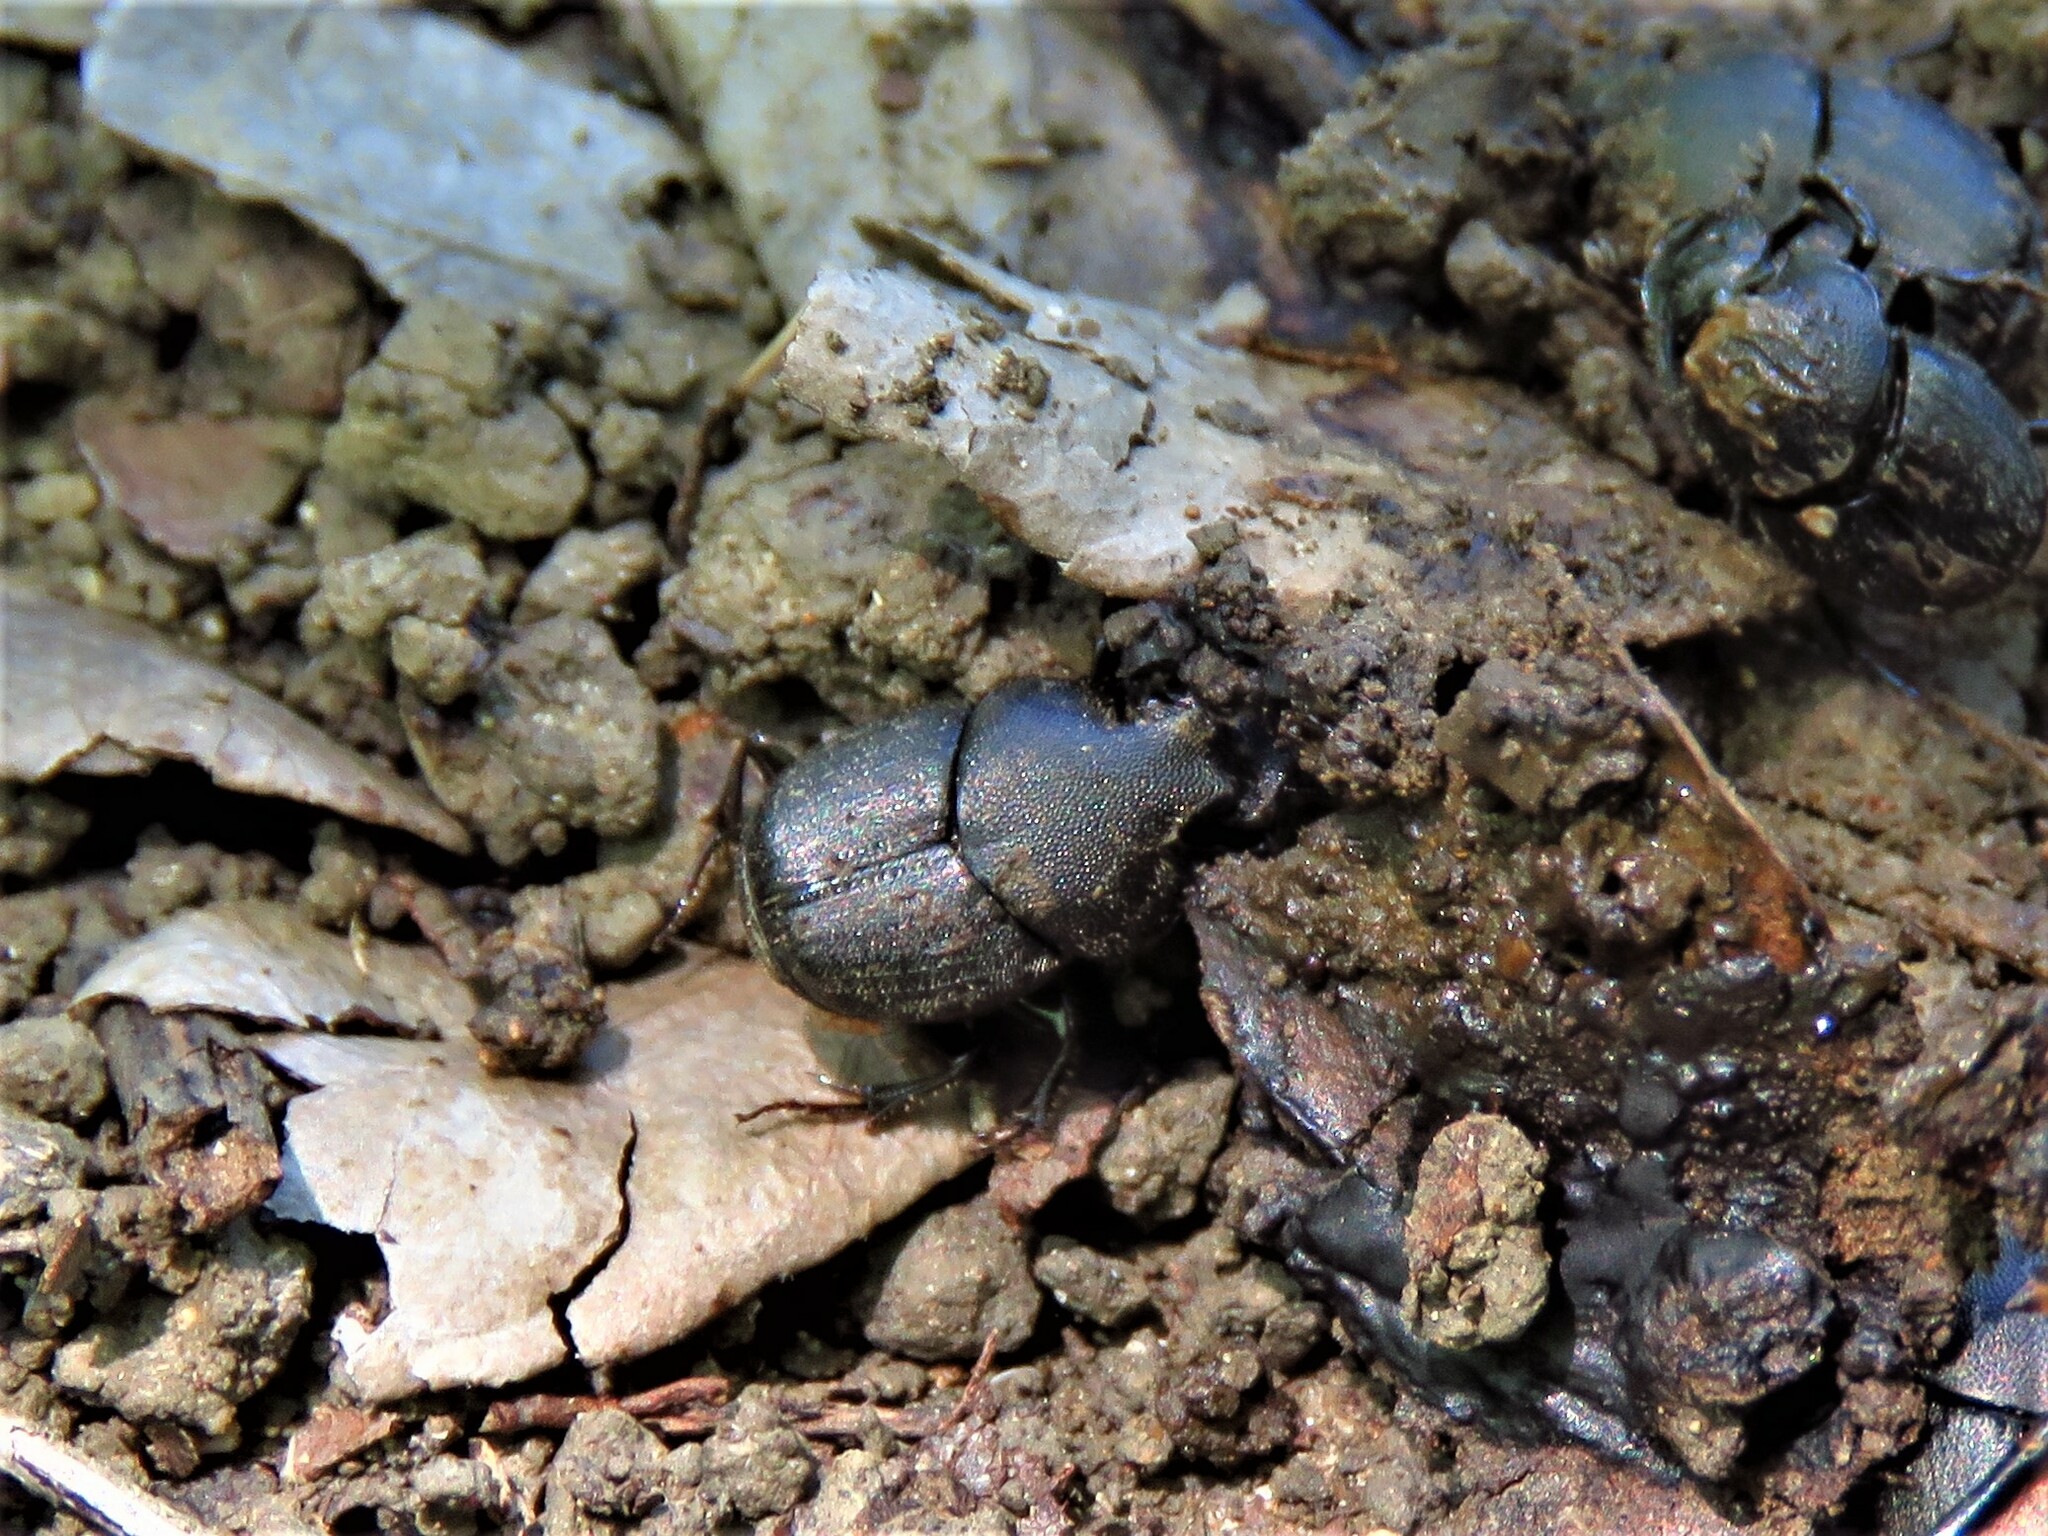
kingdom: Animalia
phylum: Arthropoda
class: Insecta
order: Coleoptera
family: Scarabaeidae
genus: Onthophagus
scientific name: Onthophagus hecate
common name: Scooped scarab
